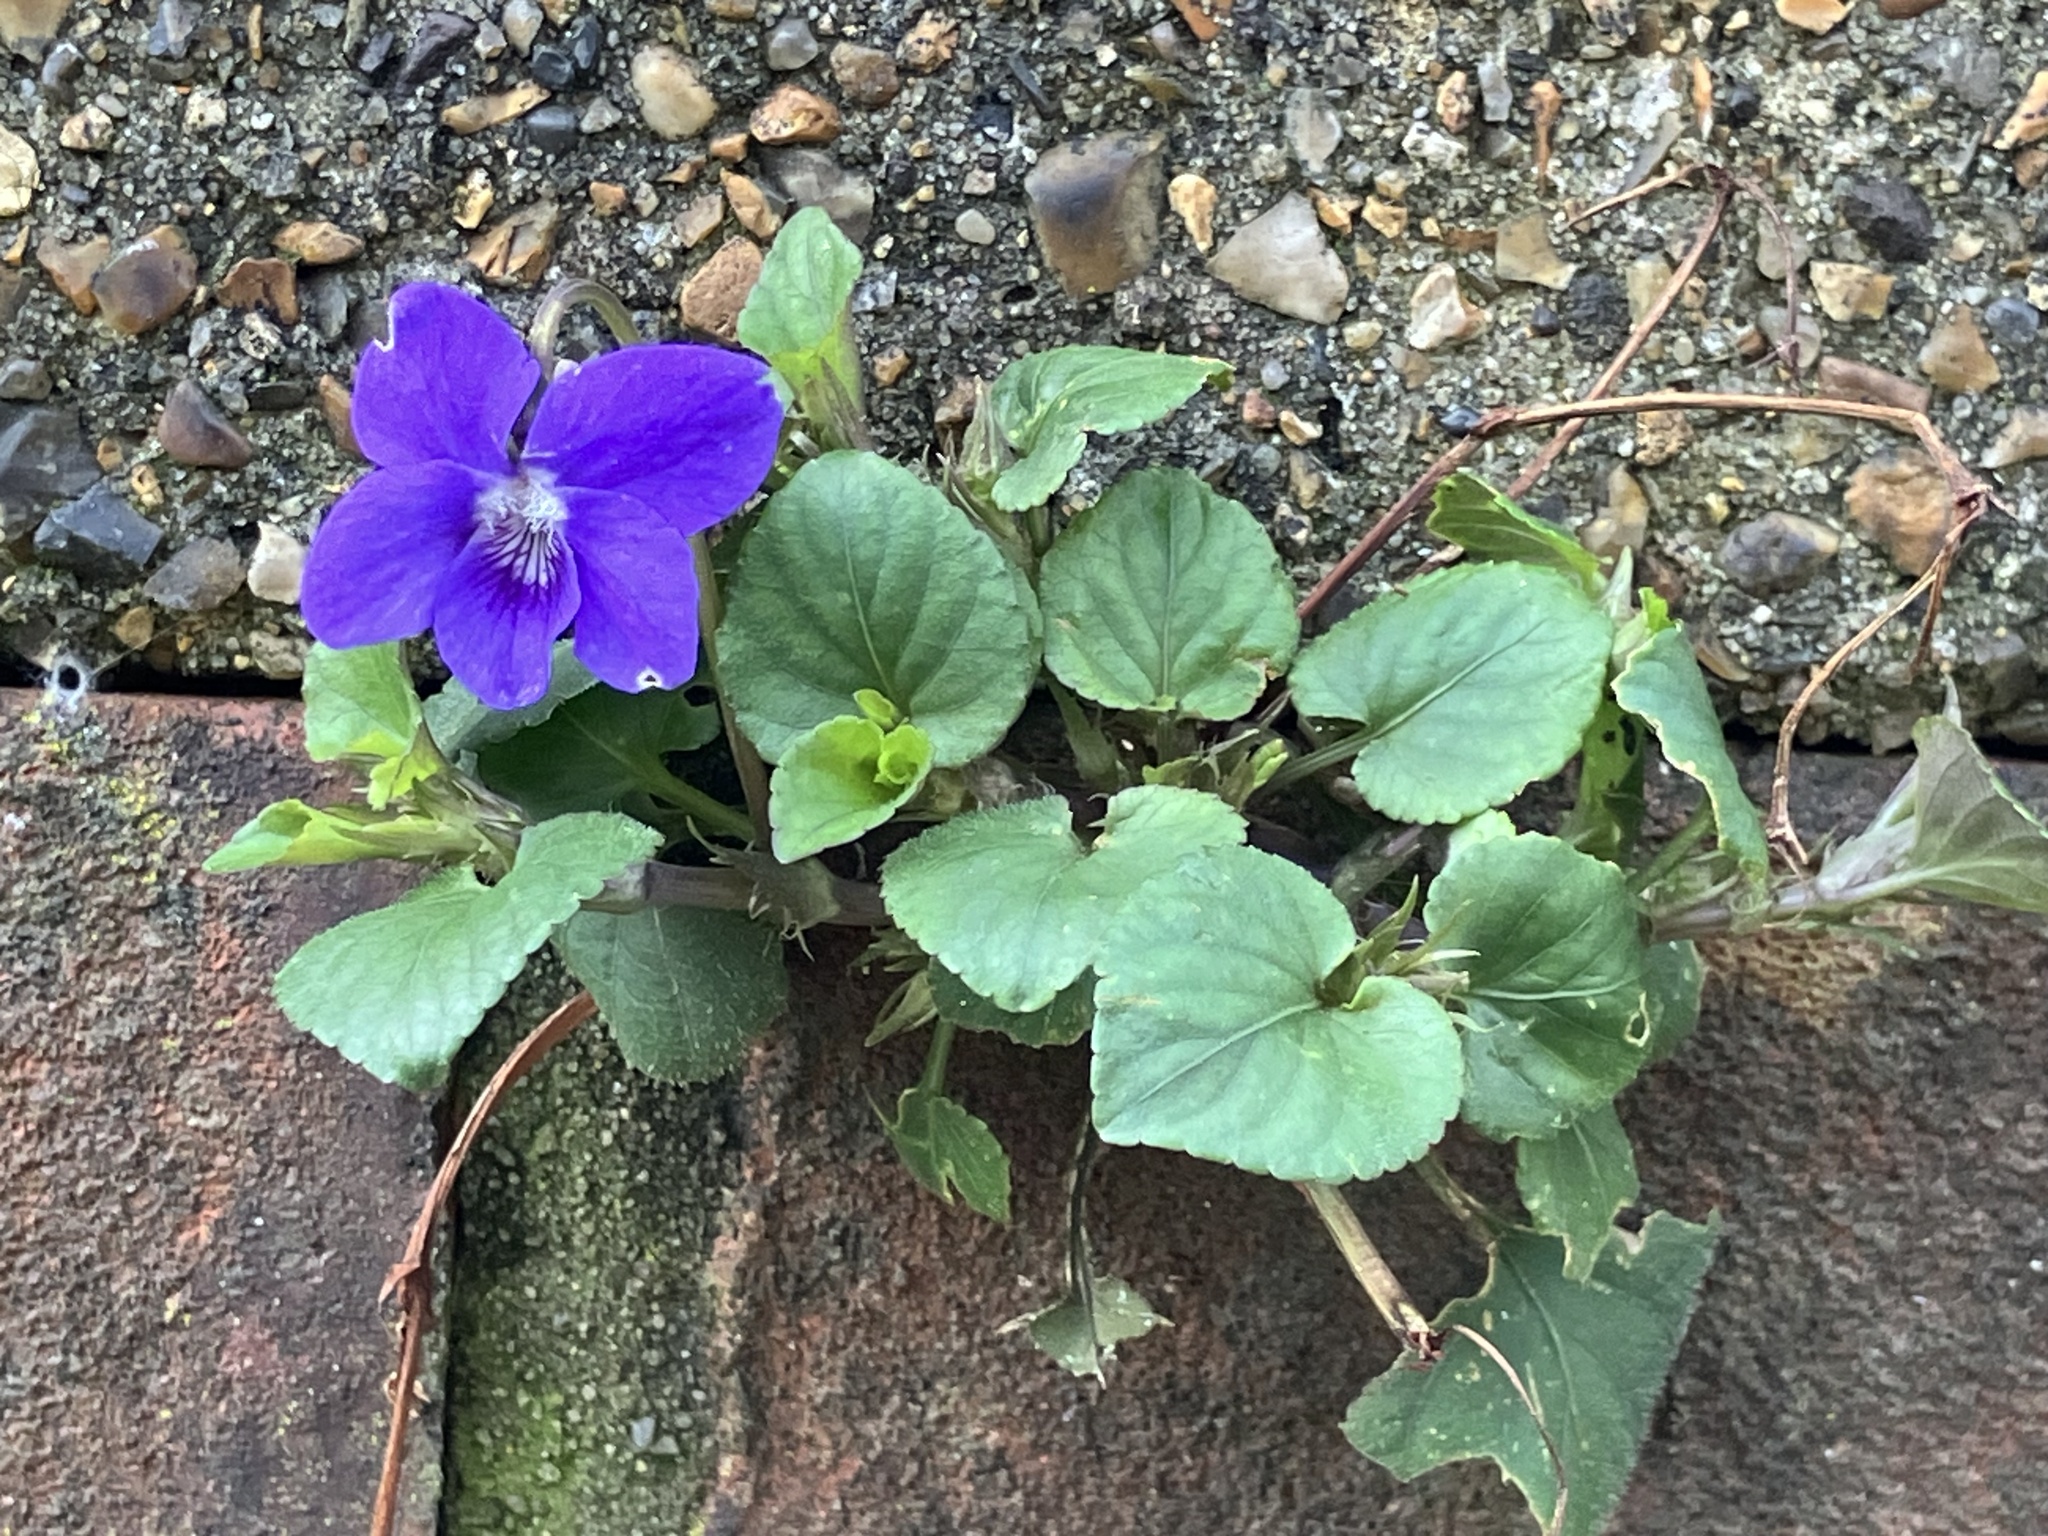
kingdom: Plantae
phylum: Tracheophyta
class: Magnoliopsida
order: Malpighiales
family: Violaceae
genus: Viola
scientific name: Viola riviniana
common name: Common dog-violet
